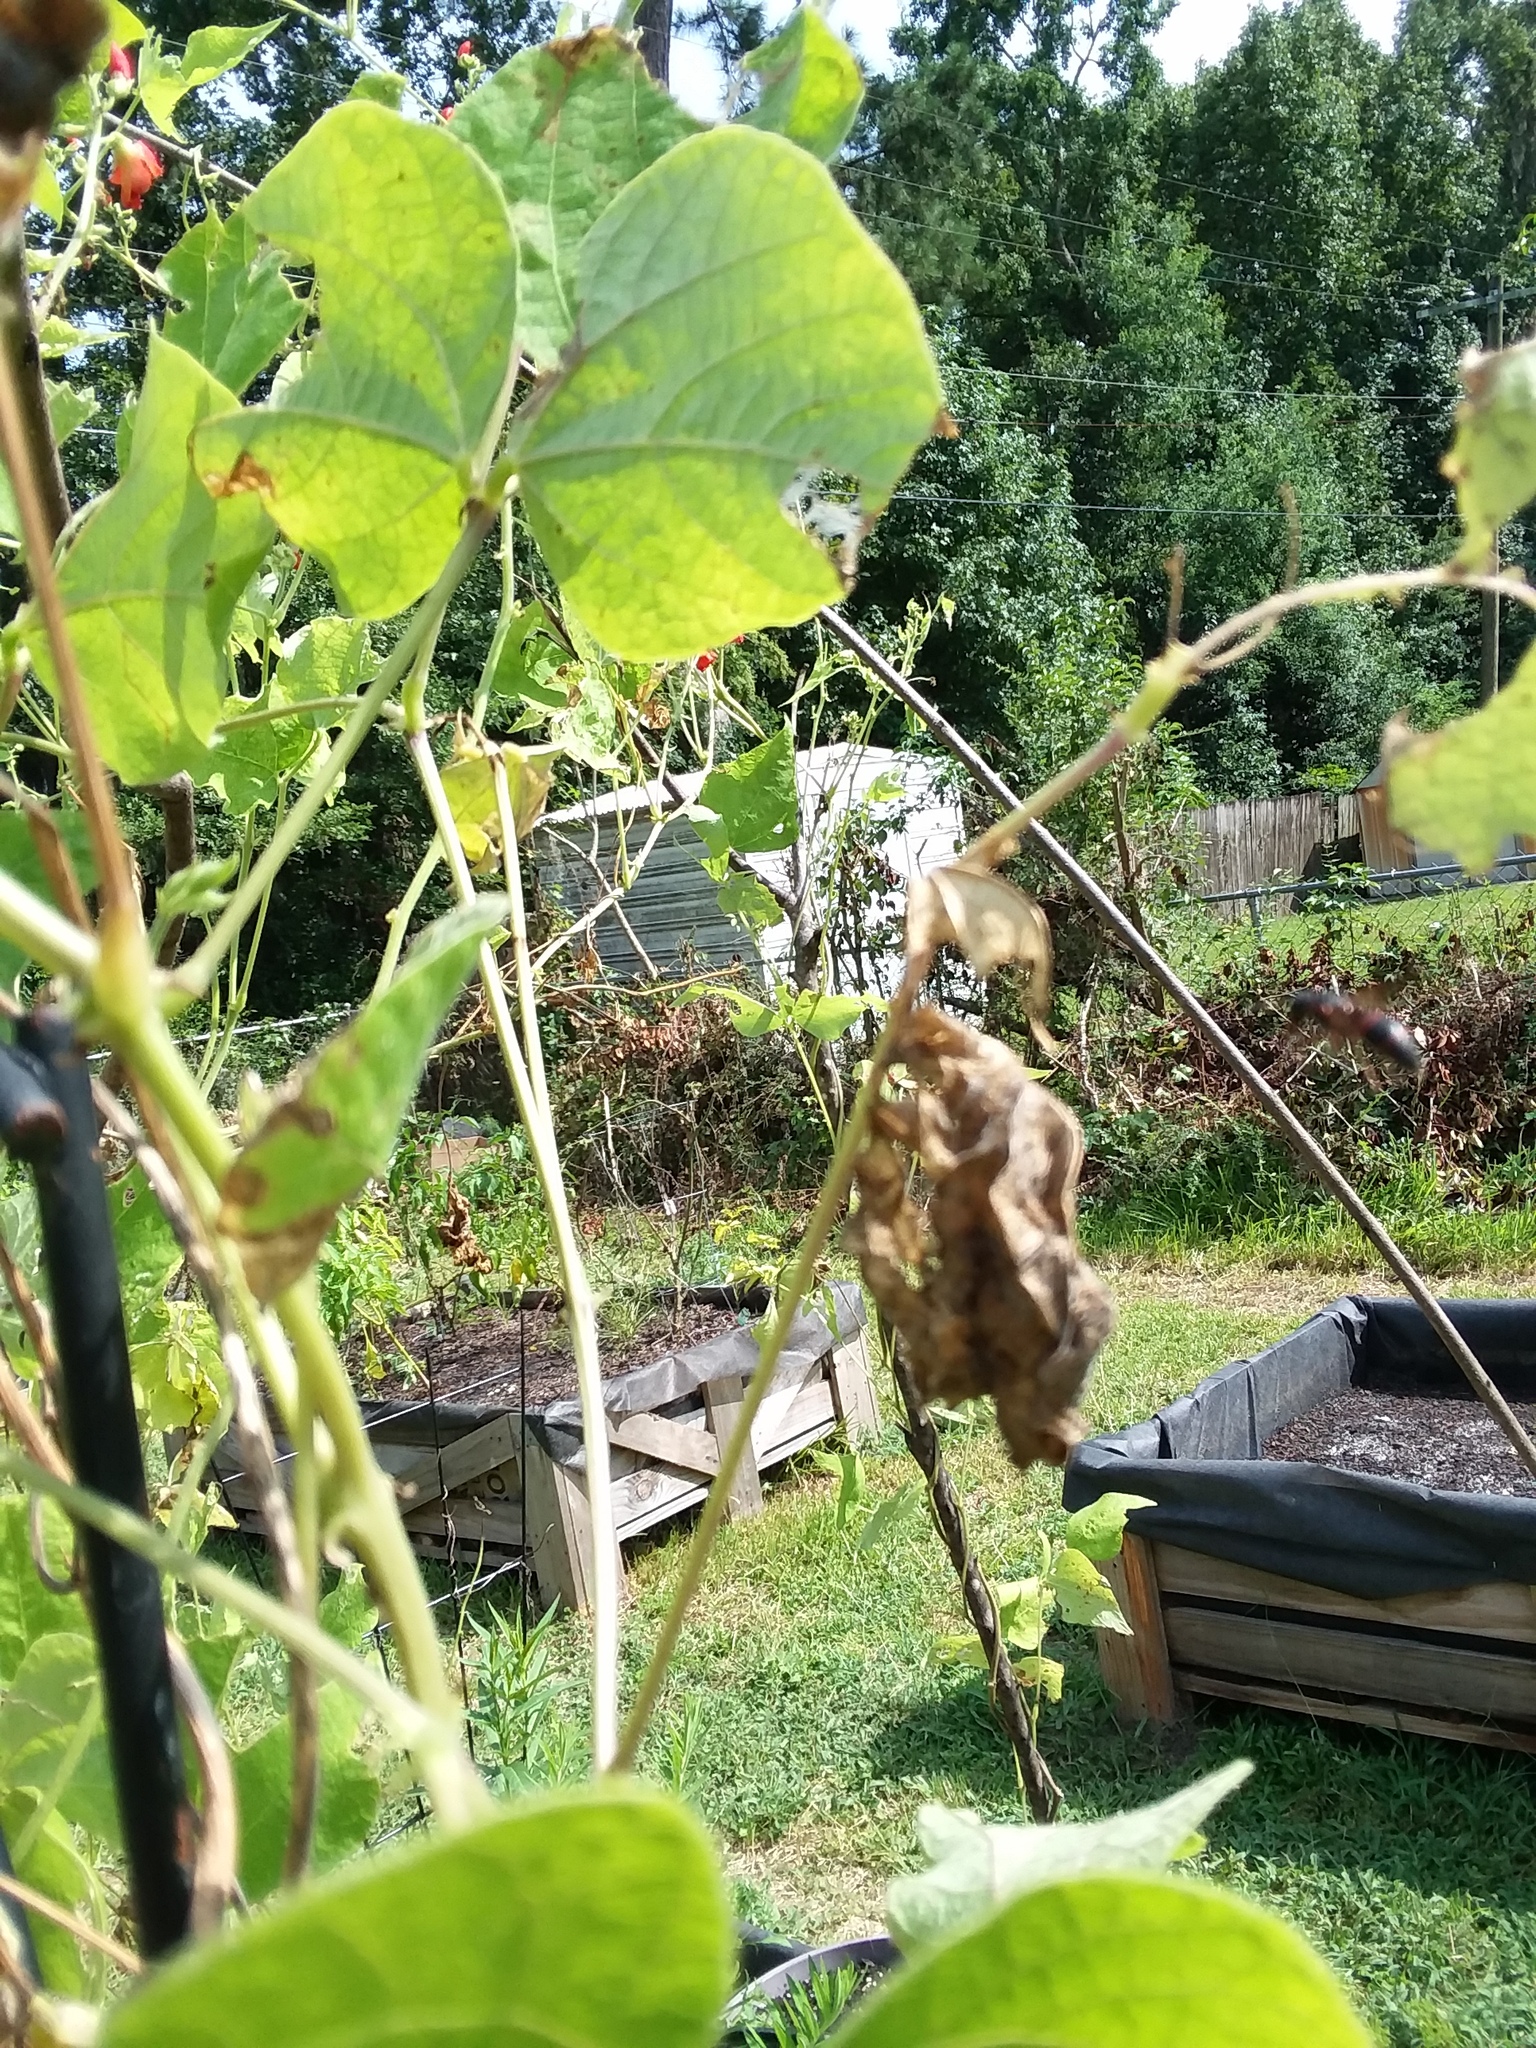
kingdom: Animalia
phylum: Arthropoda
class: Insecta
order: Hymenoptera
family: Eumenidae
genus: Pachodynerus
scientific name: Pachodynerus erynnis
